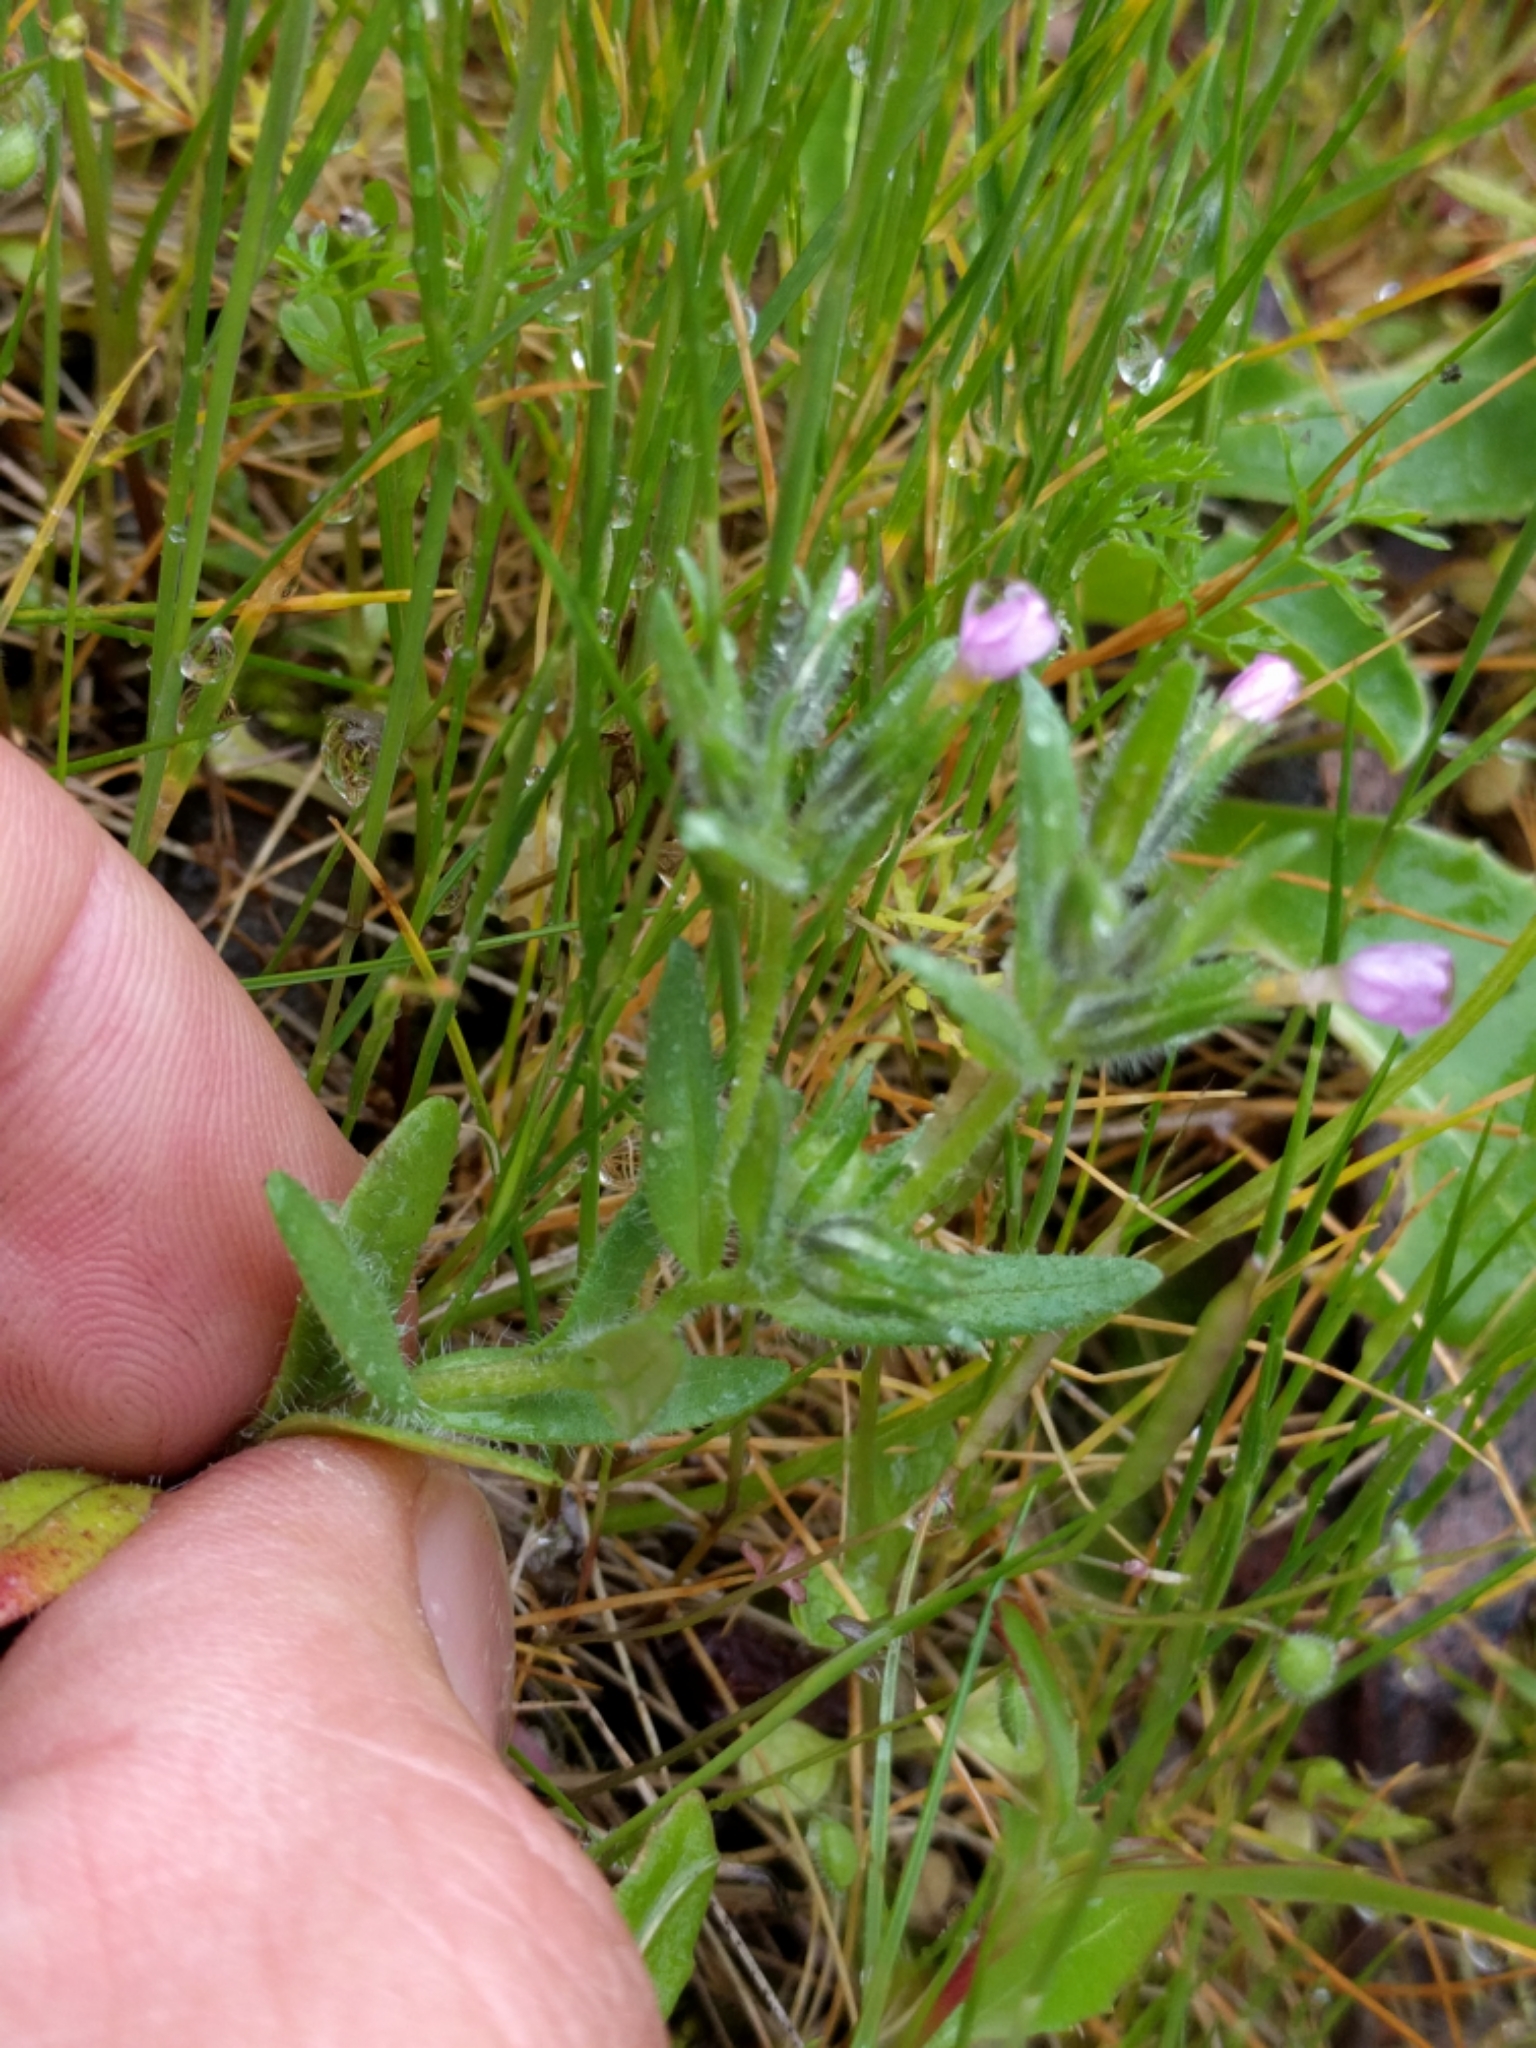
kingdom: Plantae
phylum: Tracheophyta
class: Magnoliopsida
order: Ericales
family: Polemoniaceae
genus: Phlox
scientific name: Phlox gracilis
